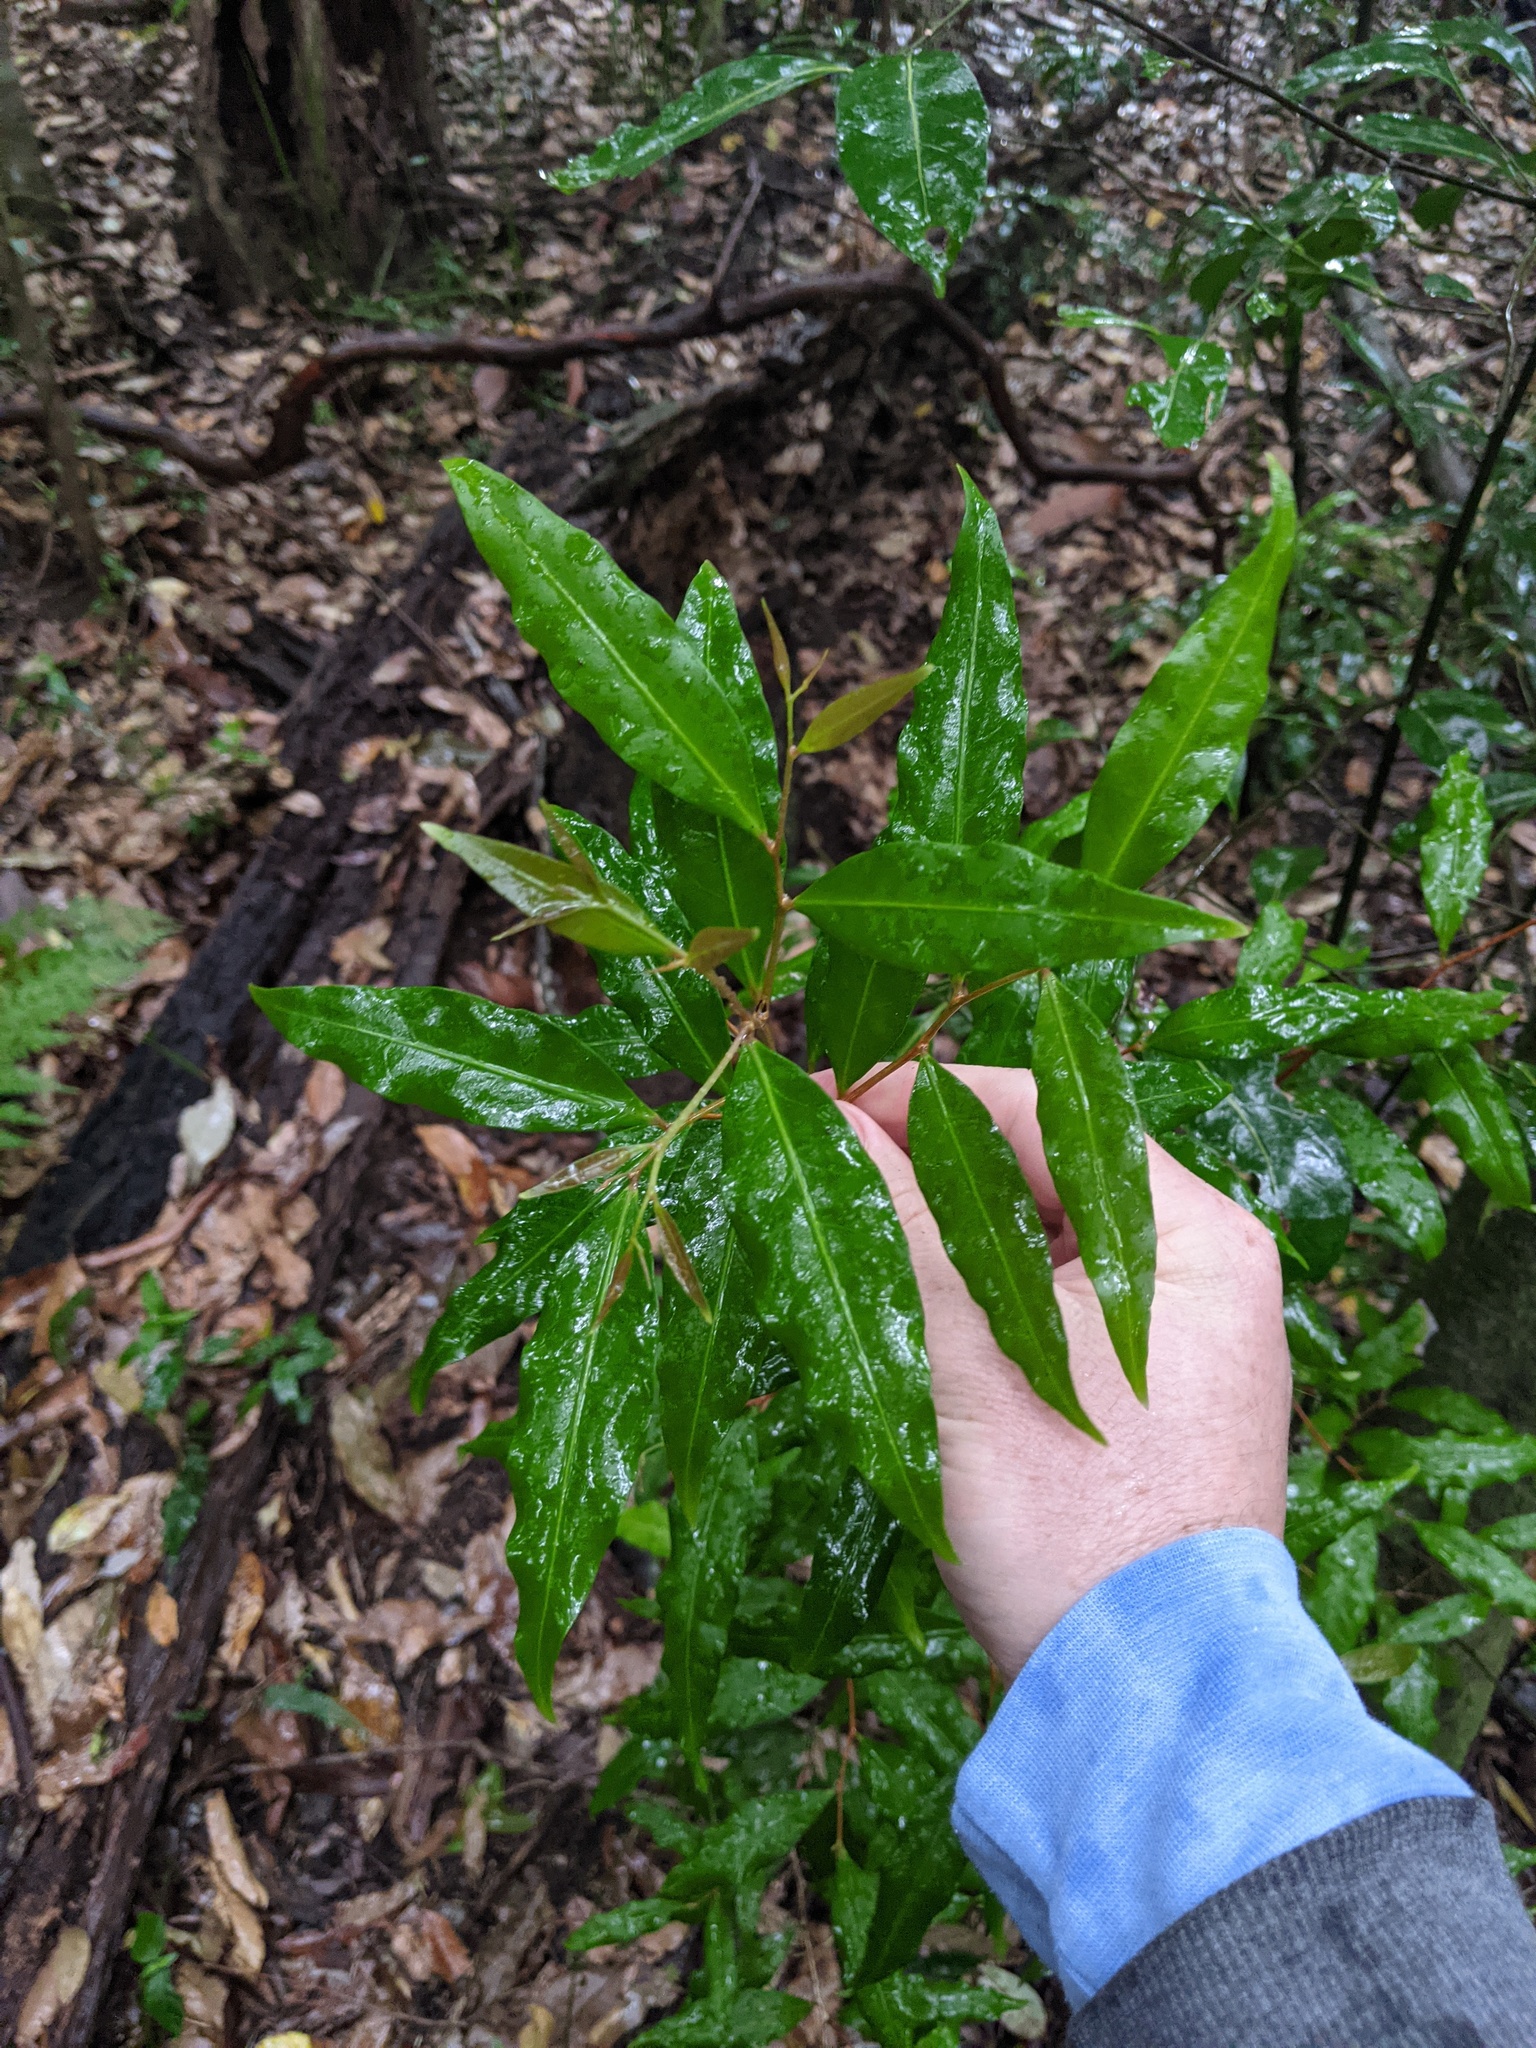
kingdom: Plantae
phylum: Tracheophyta
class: Magnoliopsida
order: Celastrales
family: Celastraceae
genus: Hedraianthera
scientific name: Hedraianthera porphyropetala
